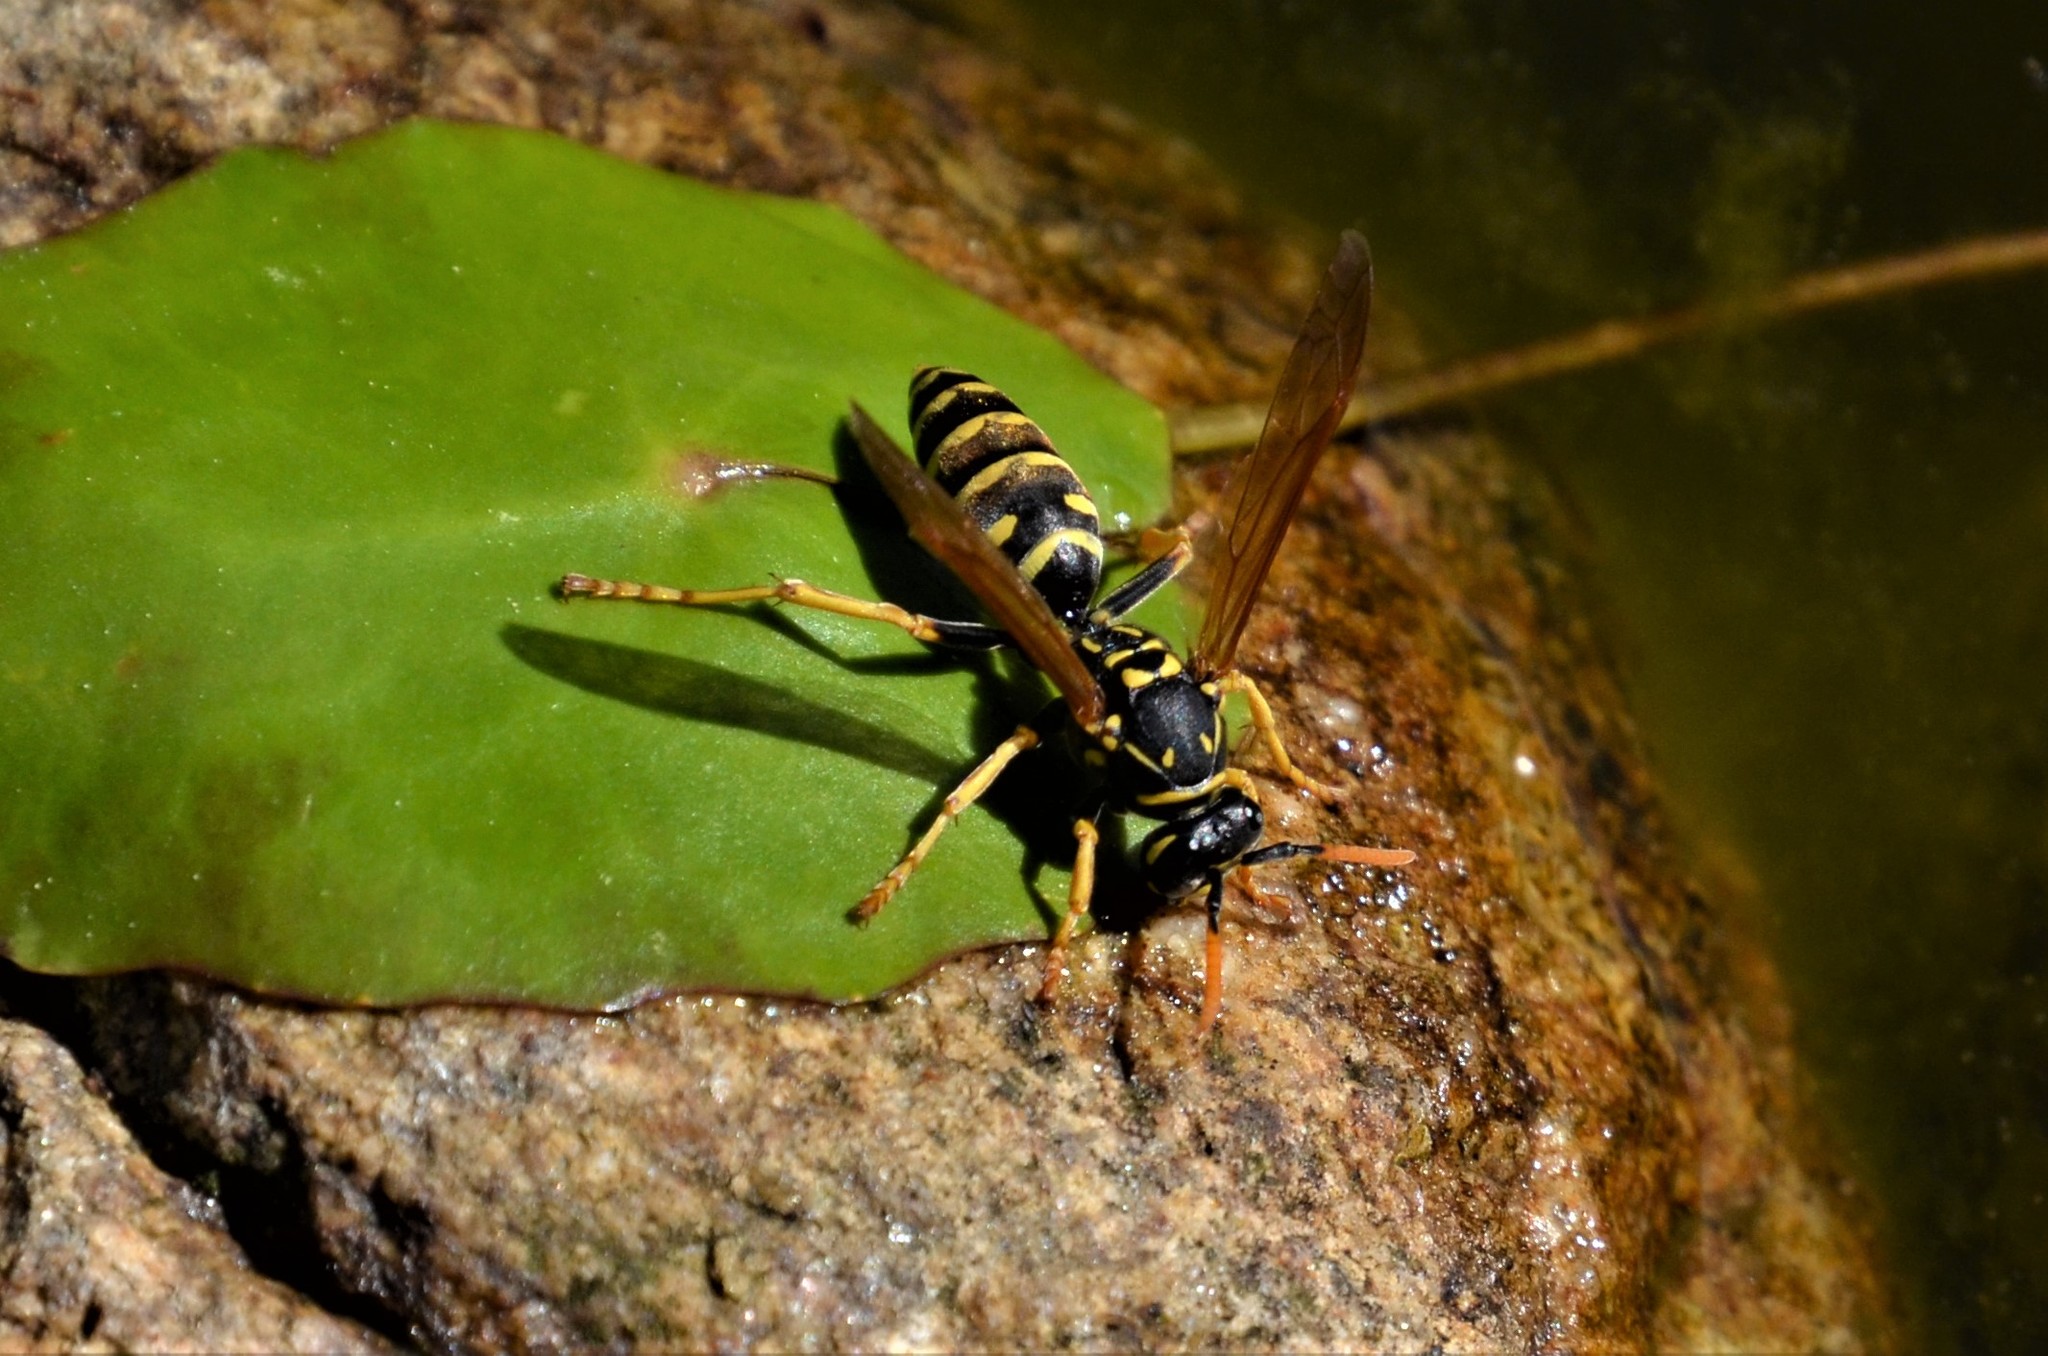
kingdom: Animalia
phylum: Arthropoda
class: Insecta
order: Hymenoptera
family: Eumenidae
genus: Polistes
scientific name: Polistes dominula
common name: Paper wasp
